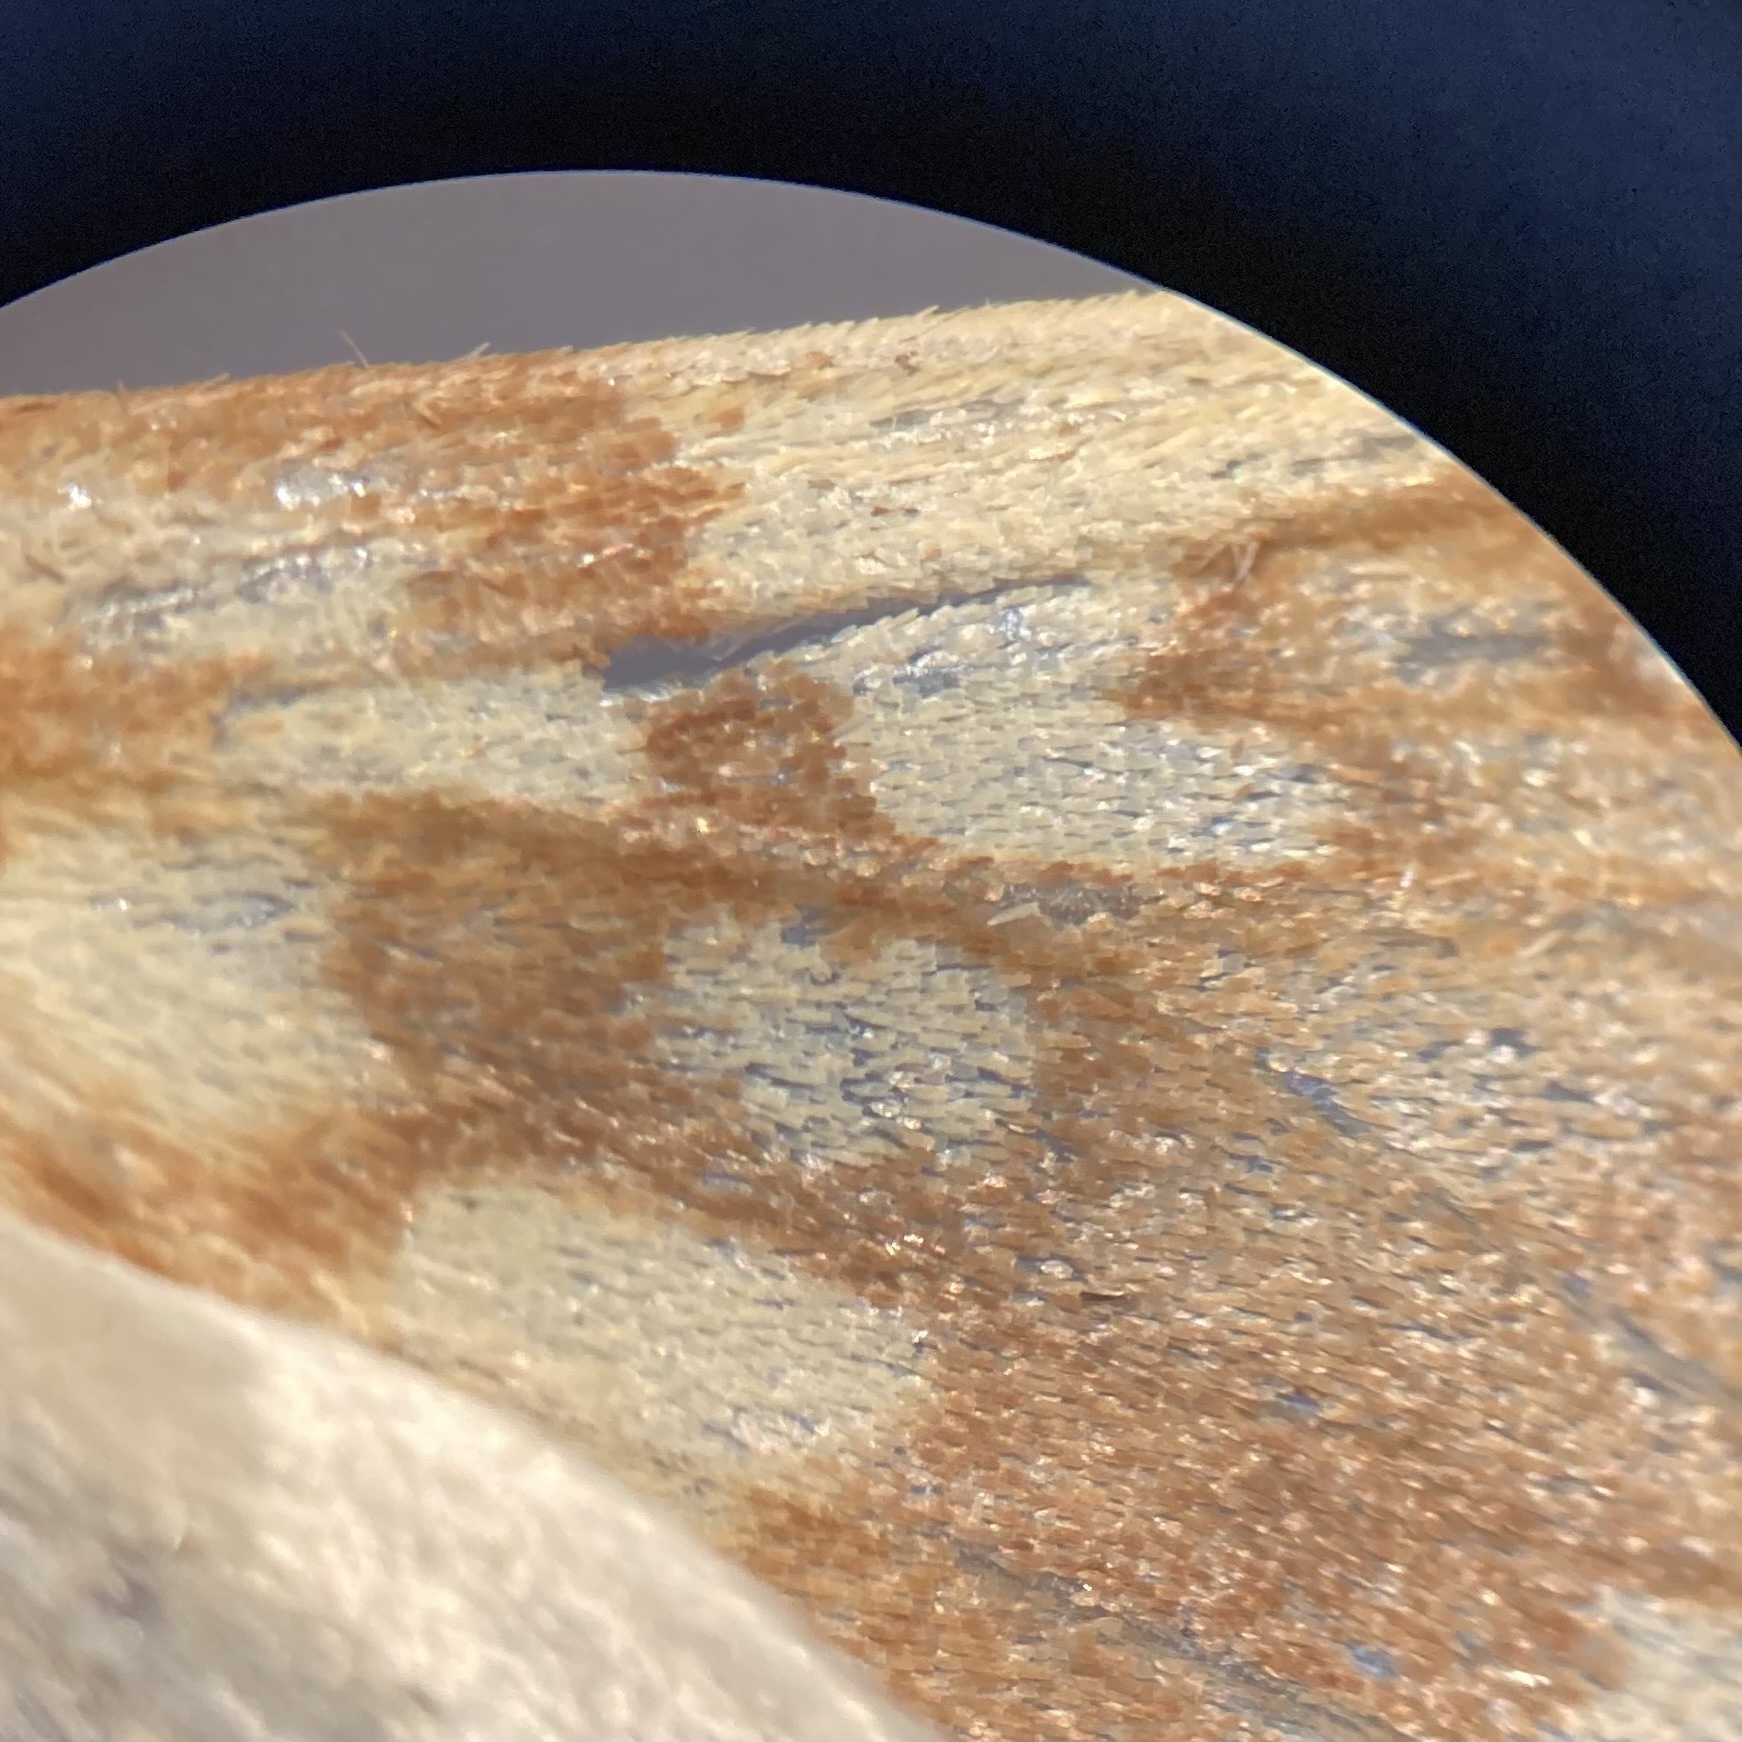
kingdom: Animalia
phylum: Arthropoda
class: Insecta
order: Lepidoptera
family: Erebidae
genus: Lophocampa
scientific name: Lophocampa maculata
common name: Spotted tussock moth
